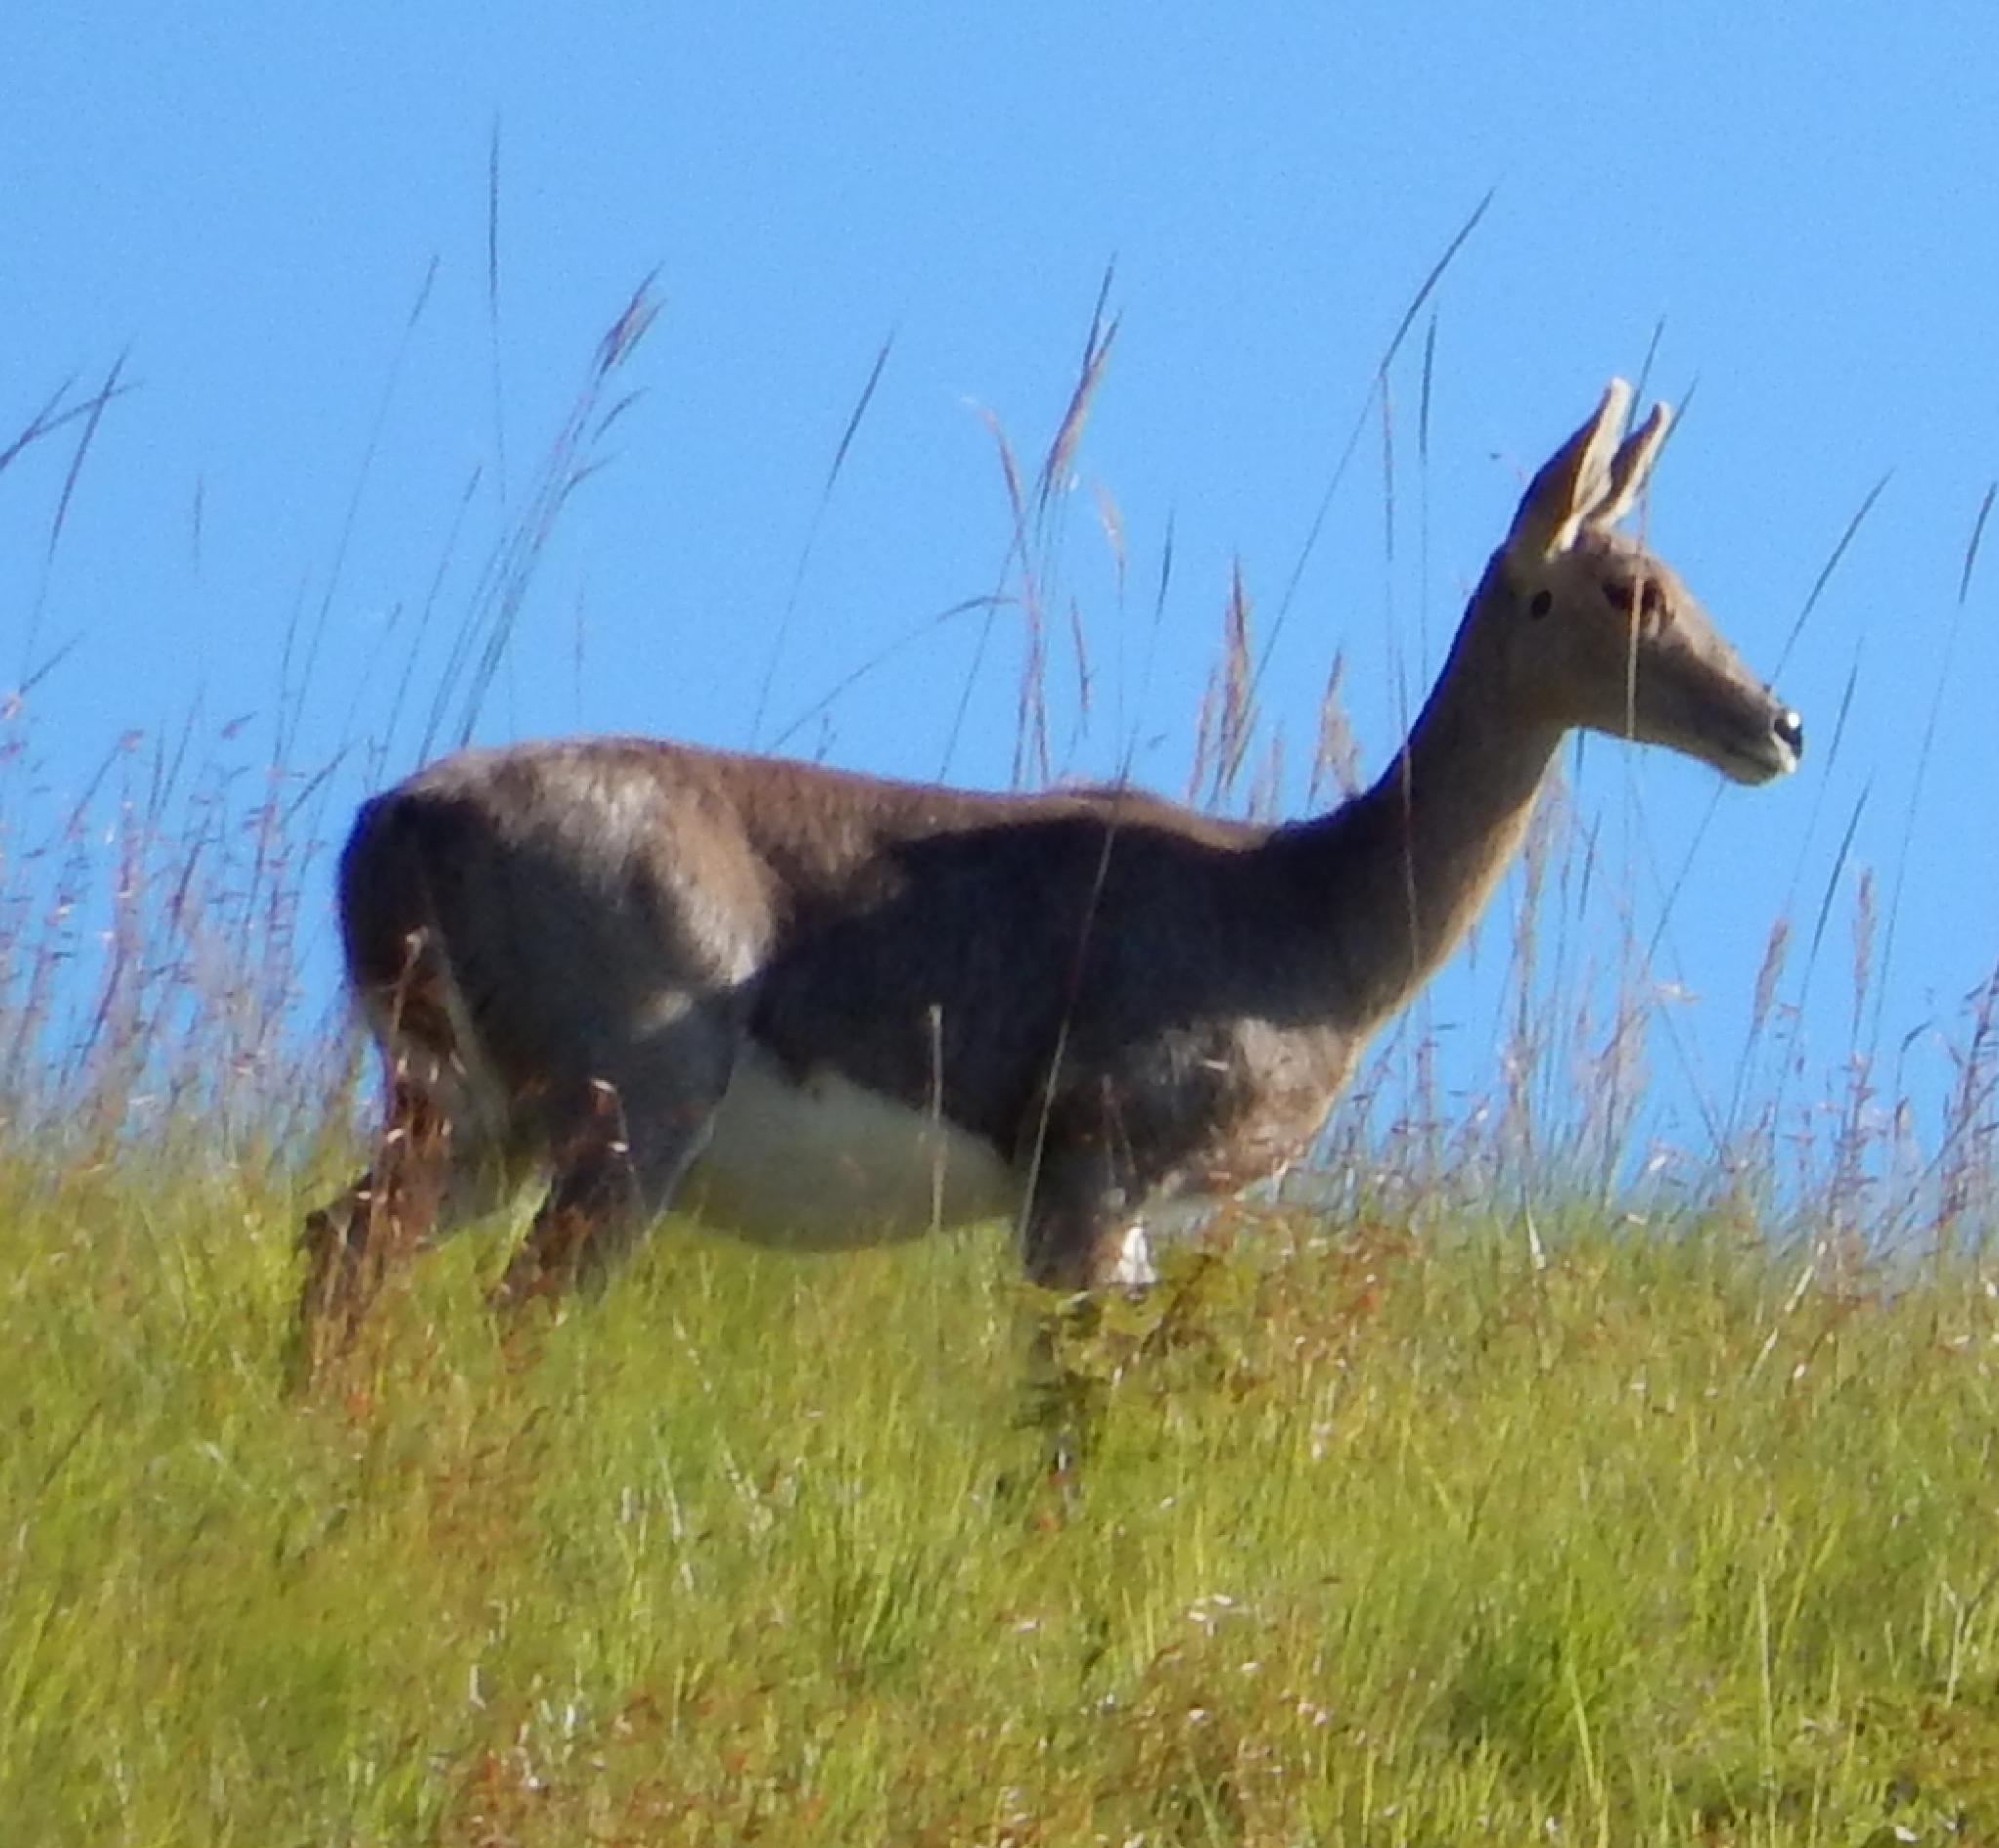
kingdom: Animalia
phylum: Chordata
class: Mammalia
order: Artiodactyla
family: Bovidae
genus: Redunca
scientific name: Redunca fulvorufula
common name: Mountain reedbuck
